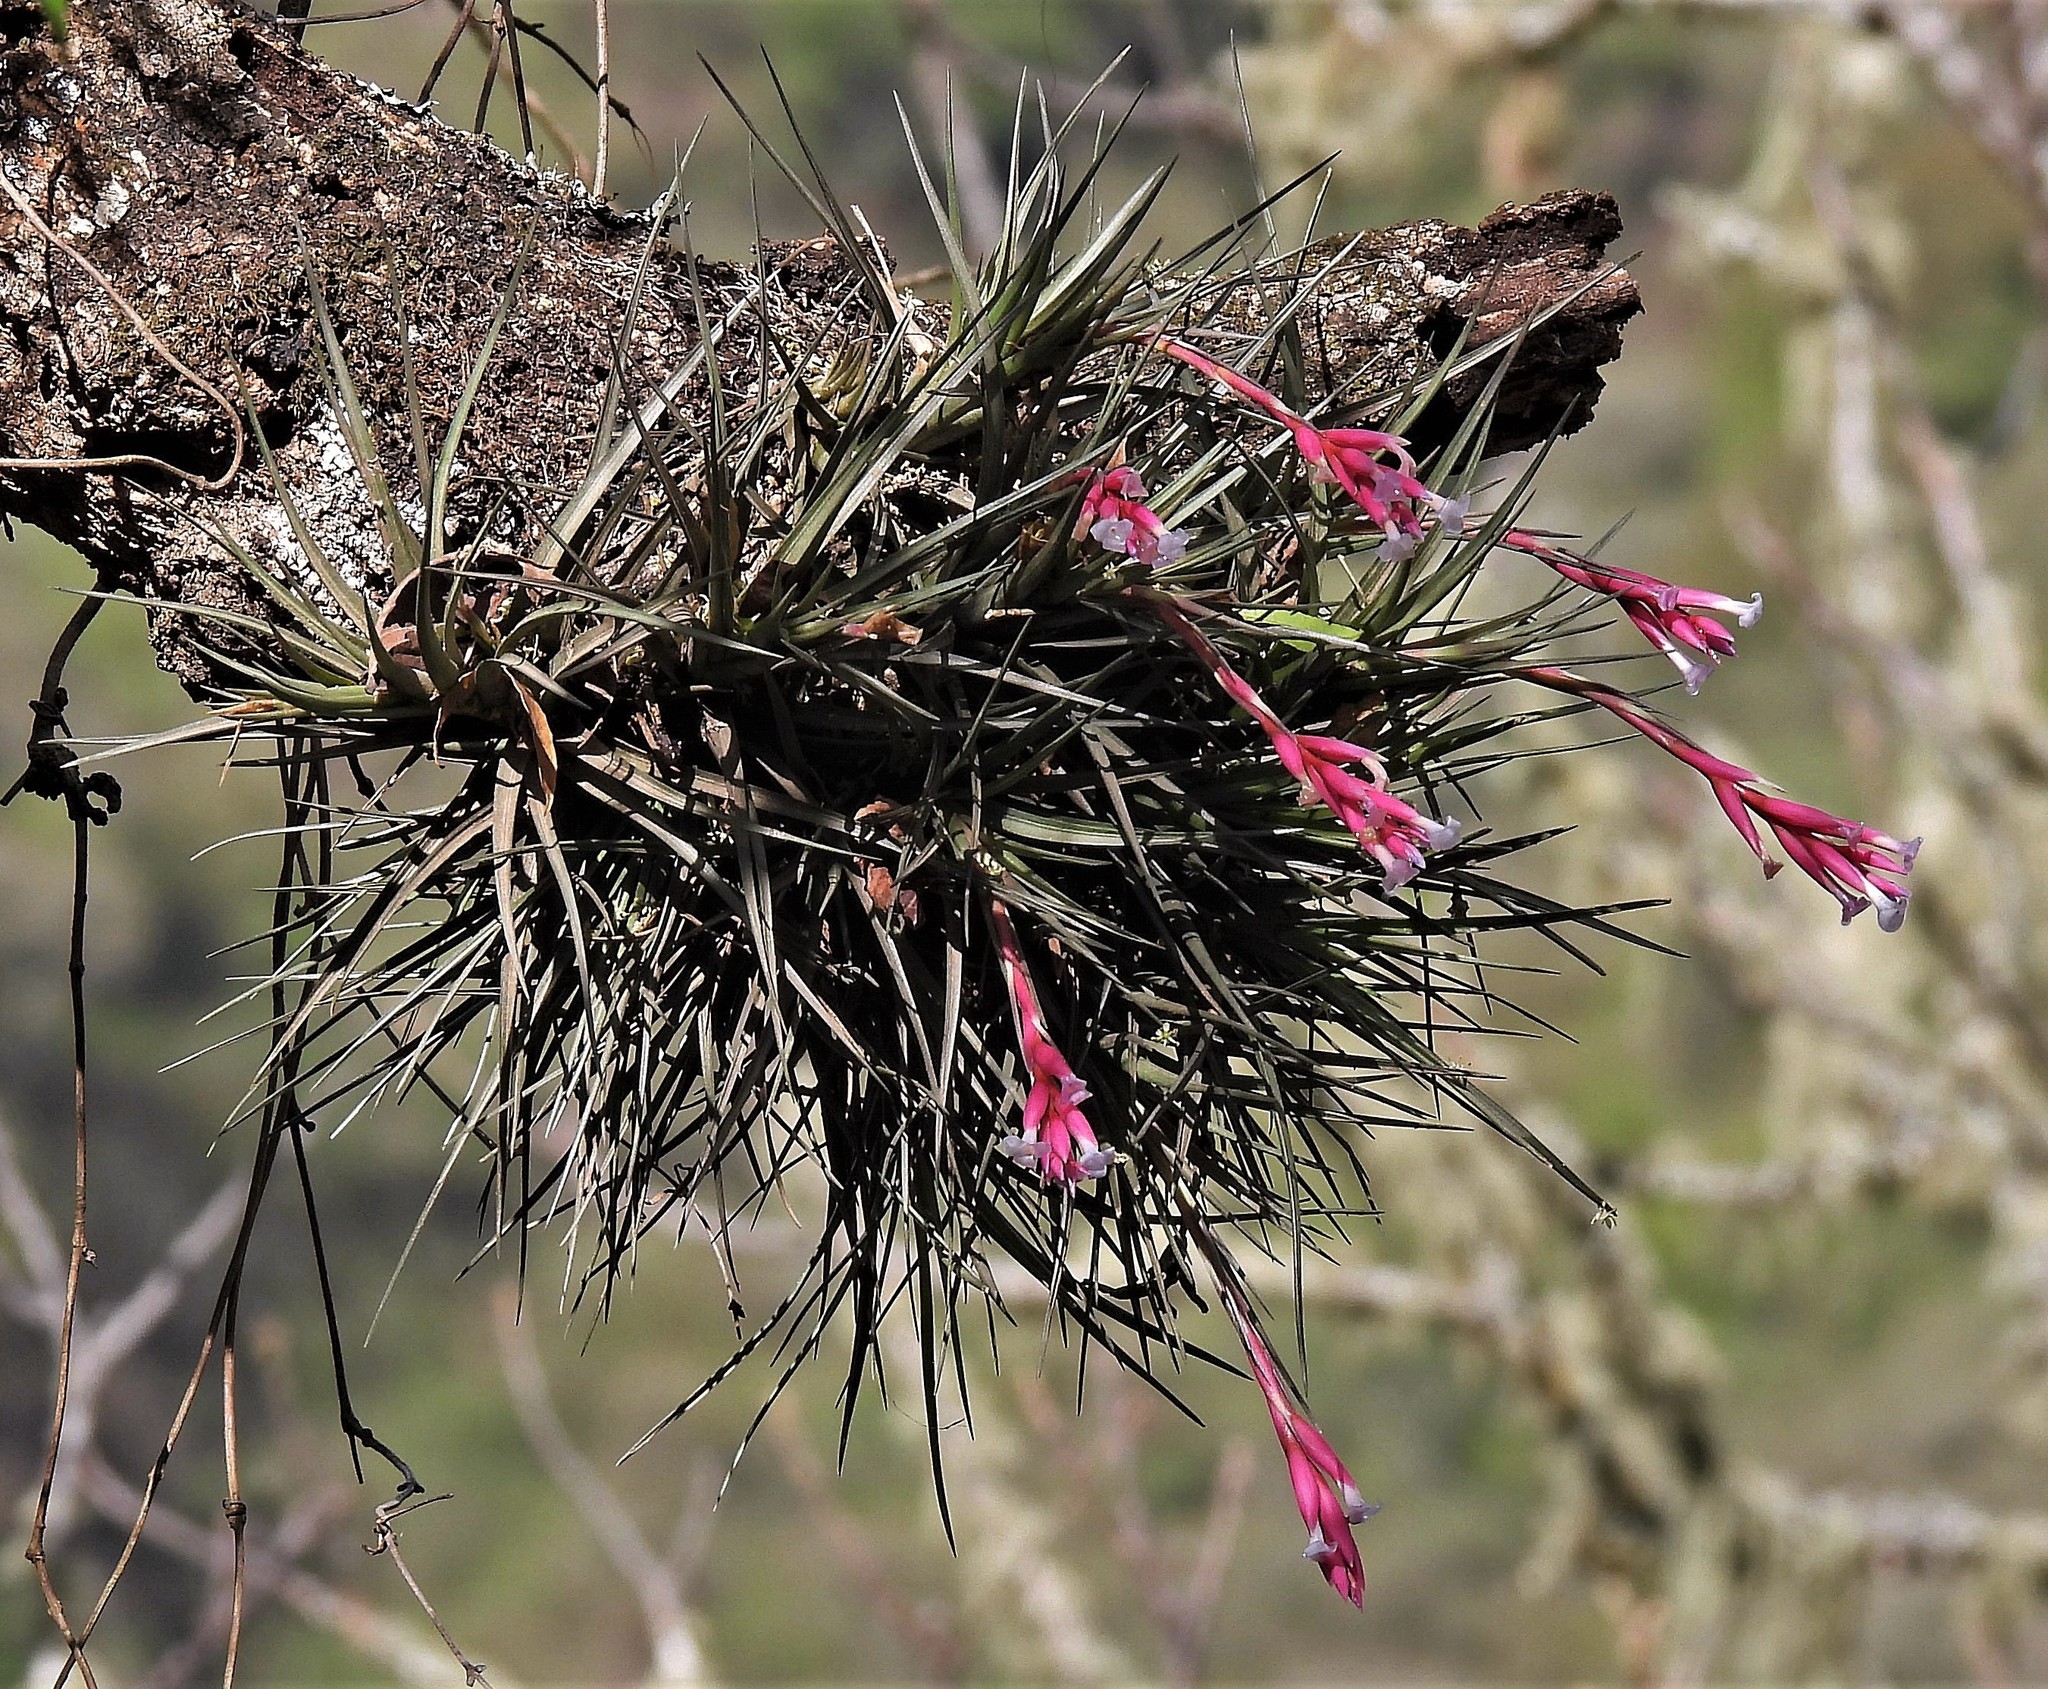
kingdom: Plantae
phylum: Tracheophyta
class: Liliopsida
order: Poales
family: Bromeliaceae
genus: Tillandsia
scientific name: Tillandsia tenuifolia
